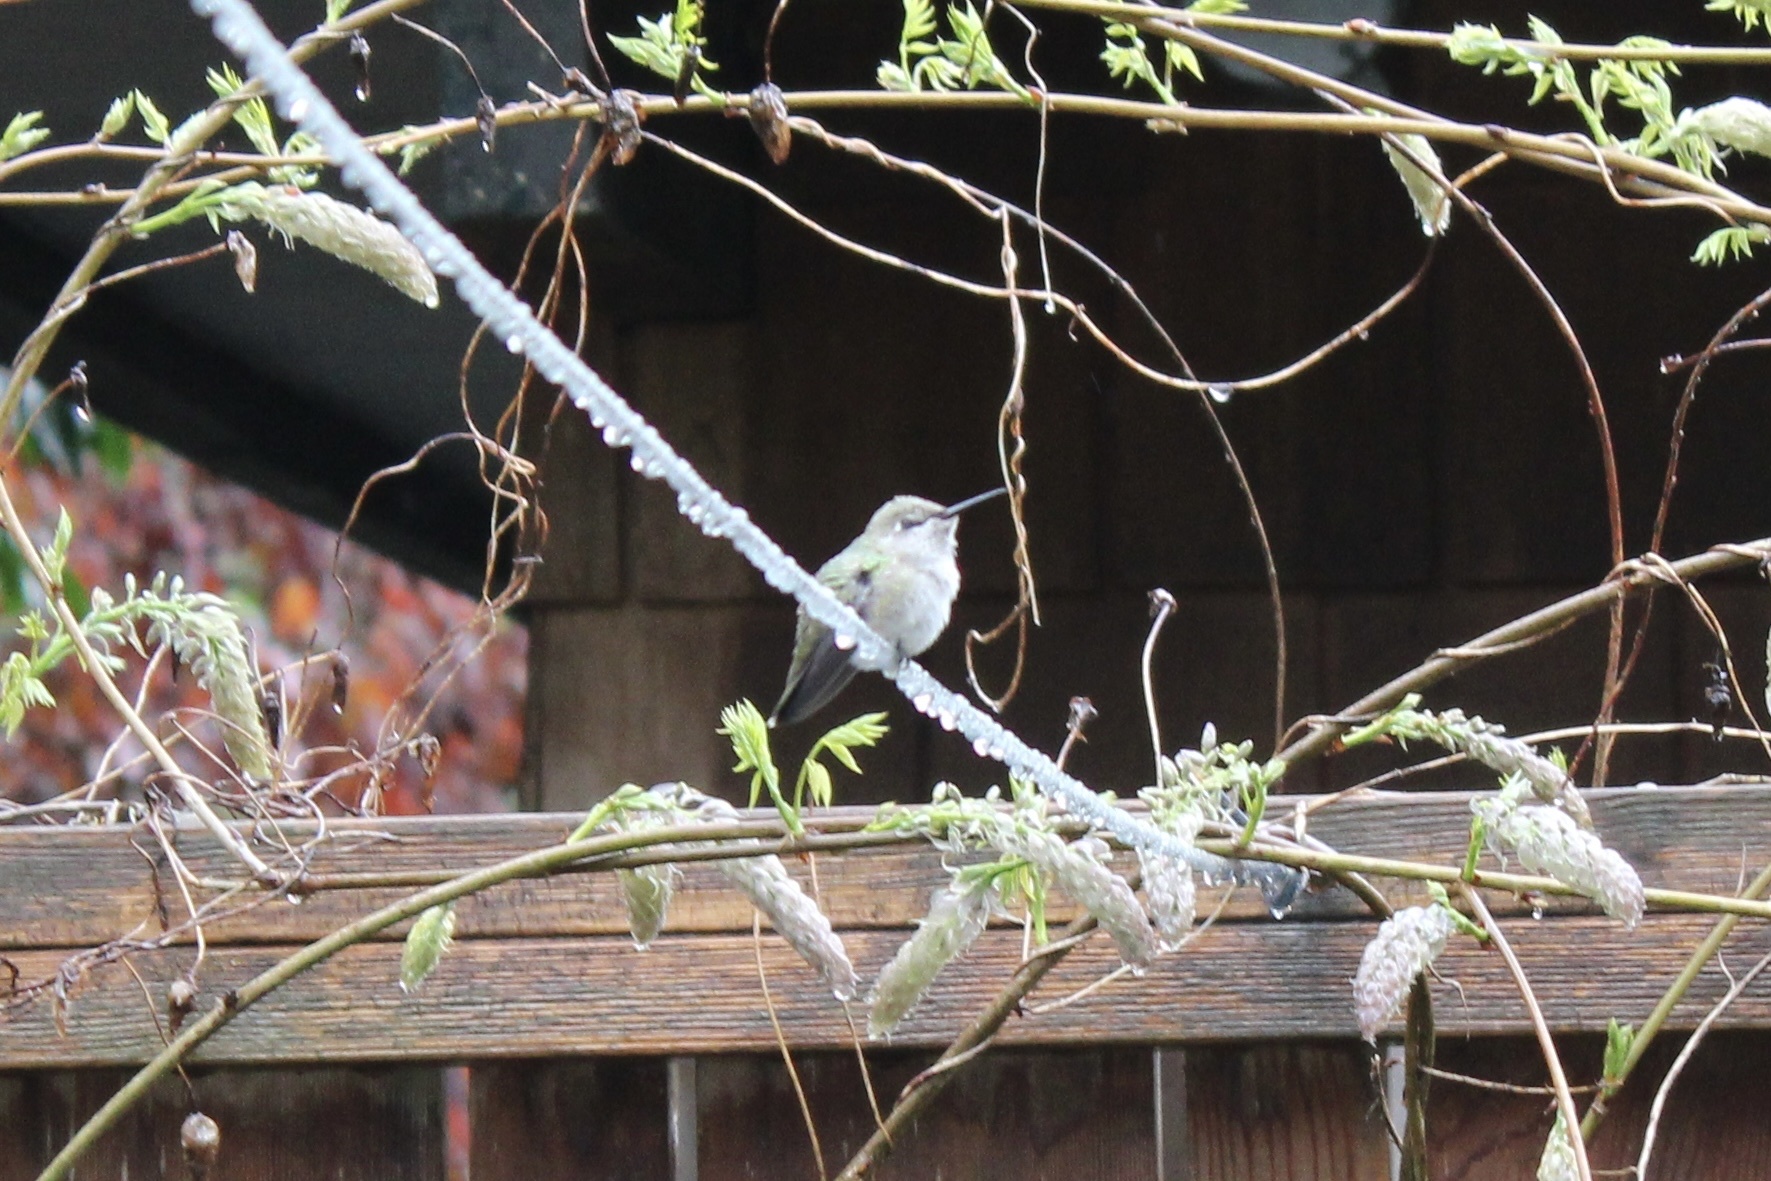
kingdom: Animalia
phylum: Chordata
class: Aves
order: Apodiformes
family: Trochilidae
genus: Calypte
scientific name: Calypte anna
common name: Anna's hummingbird
